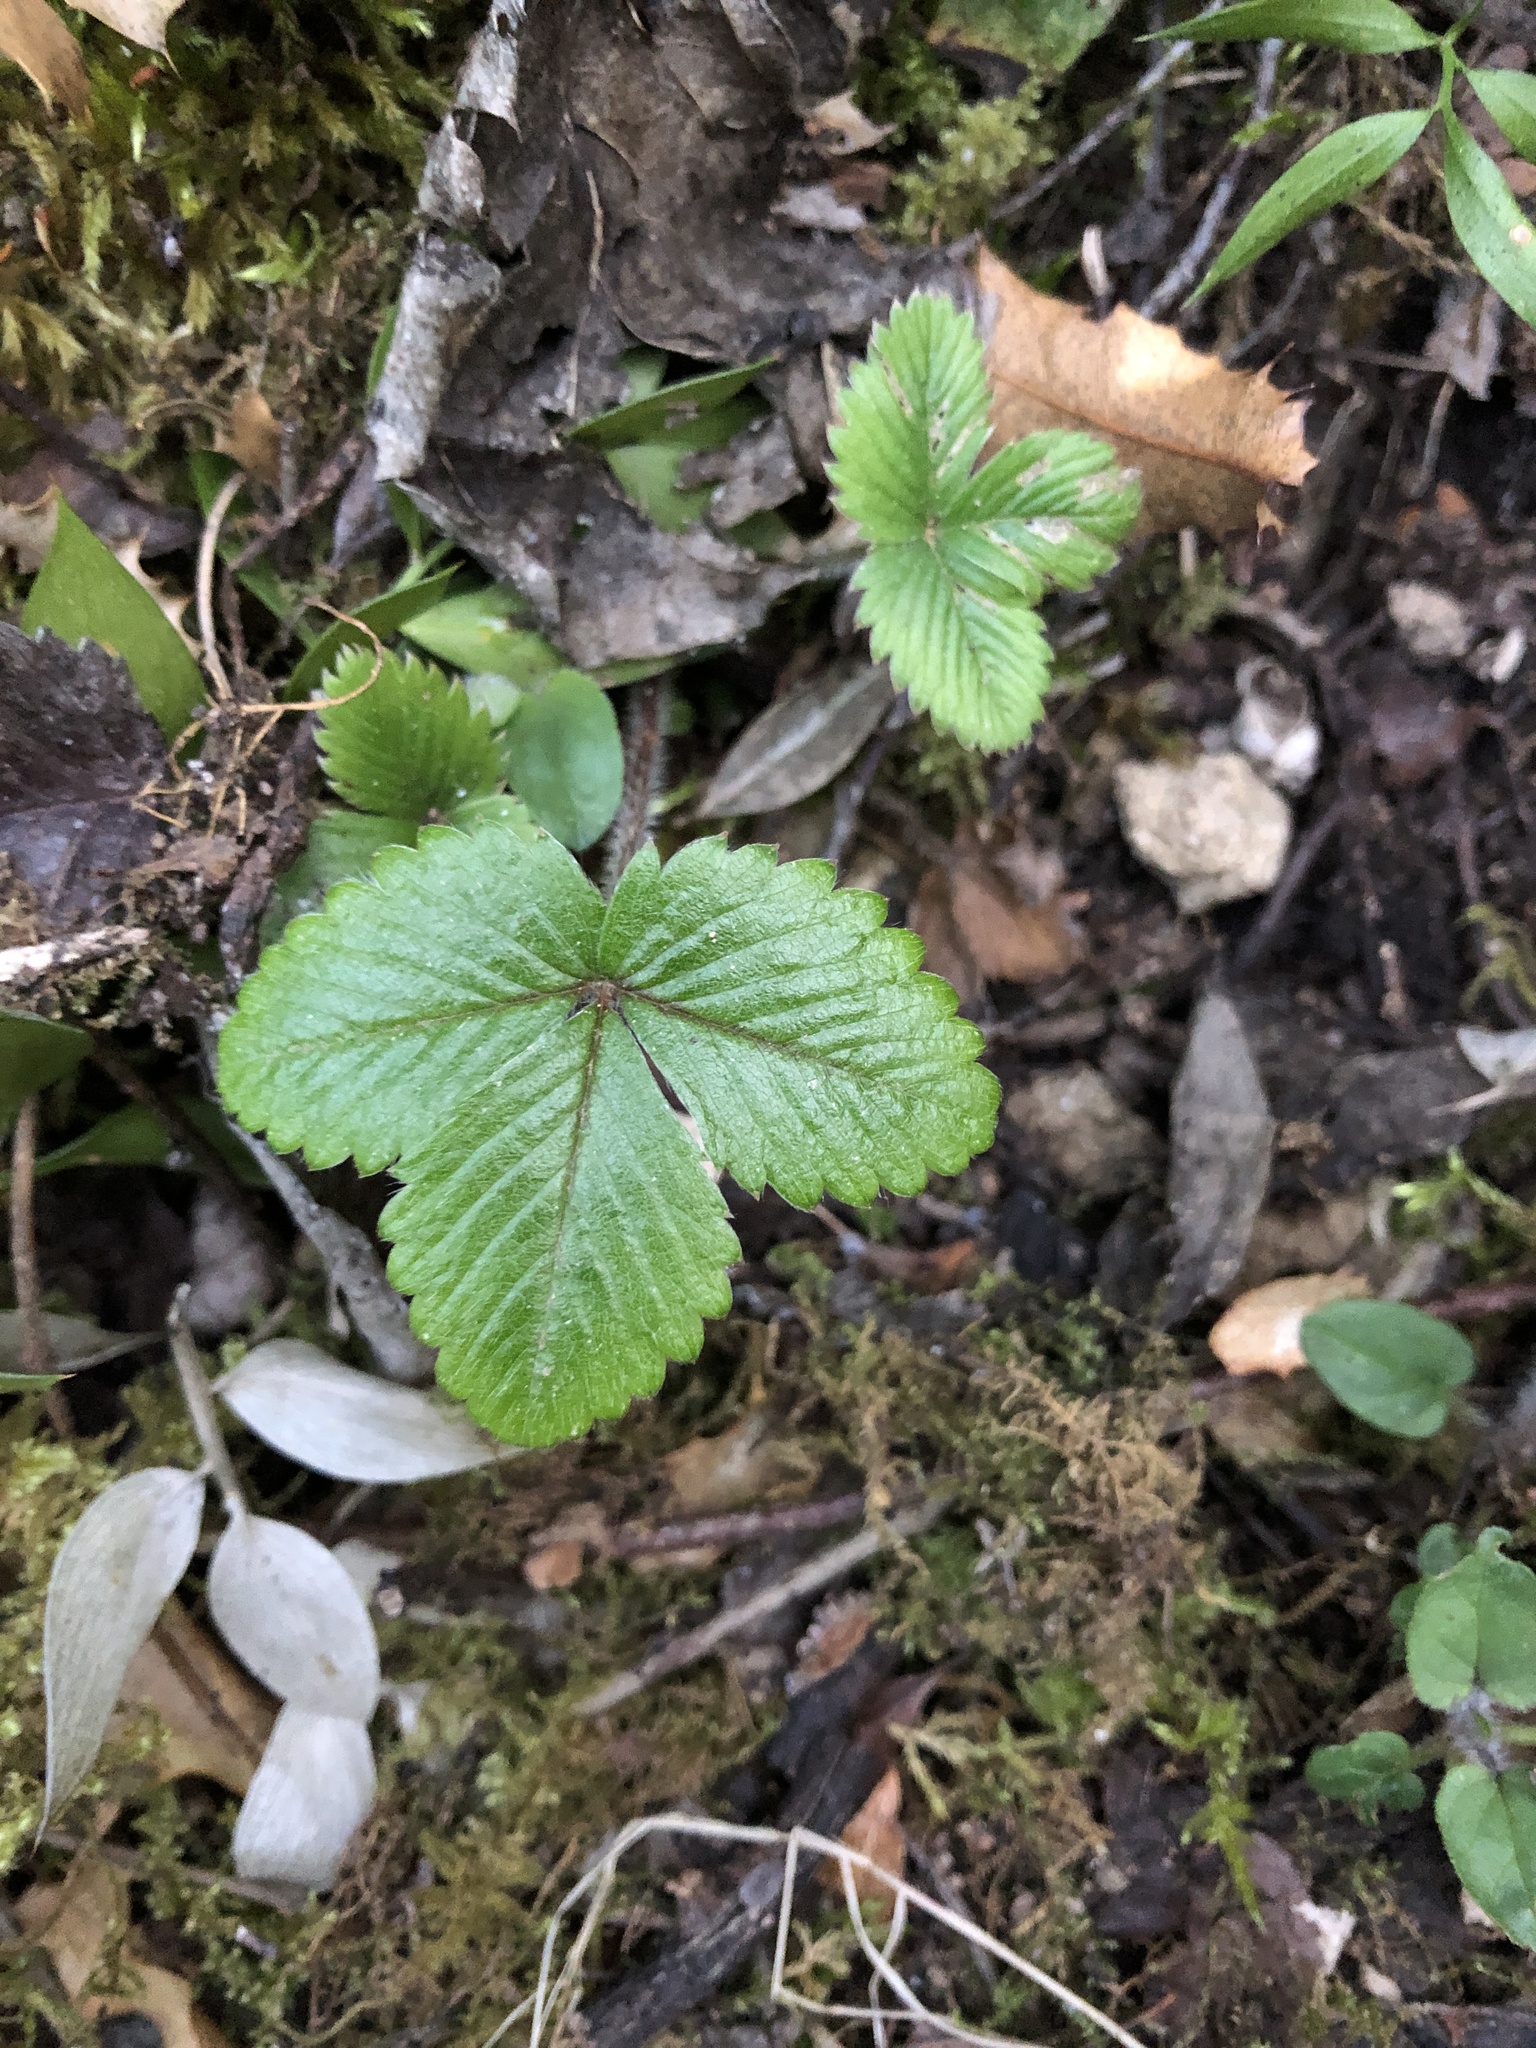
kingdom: Plantae
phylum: Tracheophyta
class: Magnoliopsida
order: Rosales
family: Rosaceae
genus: Fragaria
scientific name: Fragaria vesca
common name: Wild strawberry
